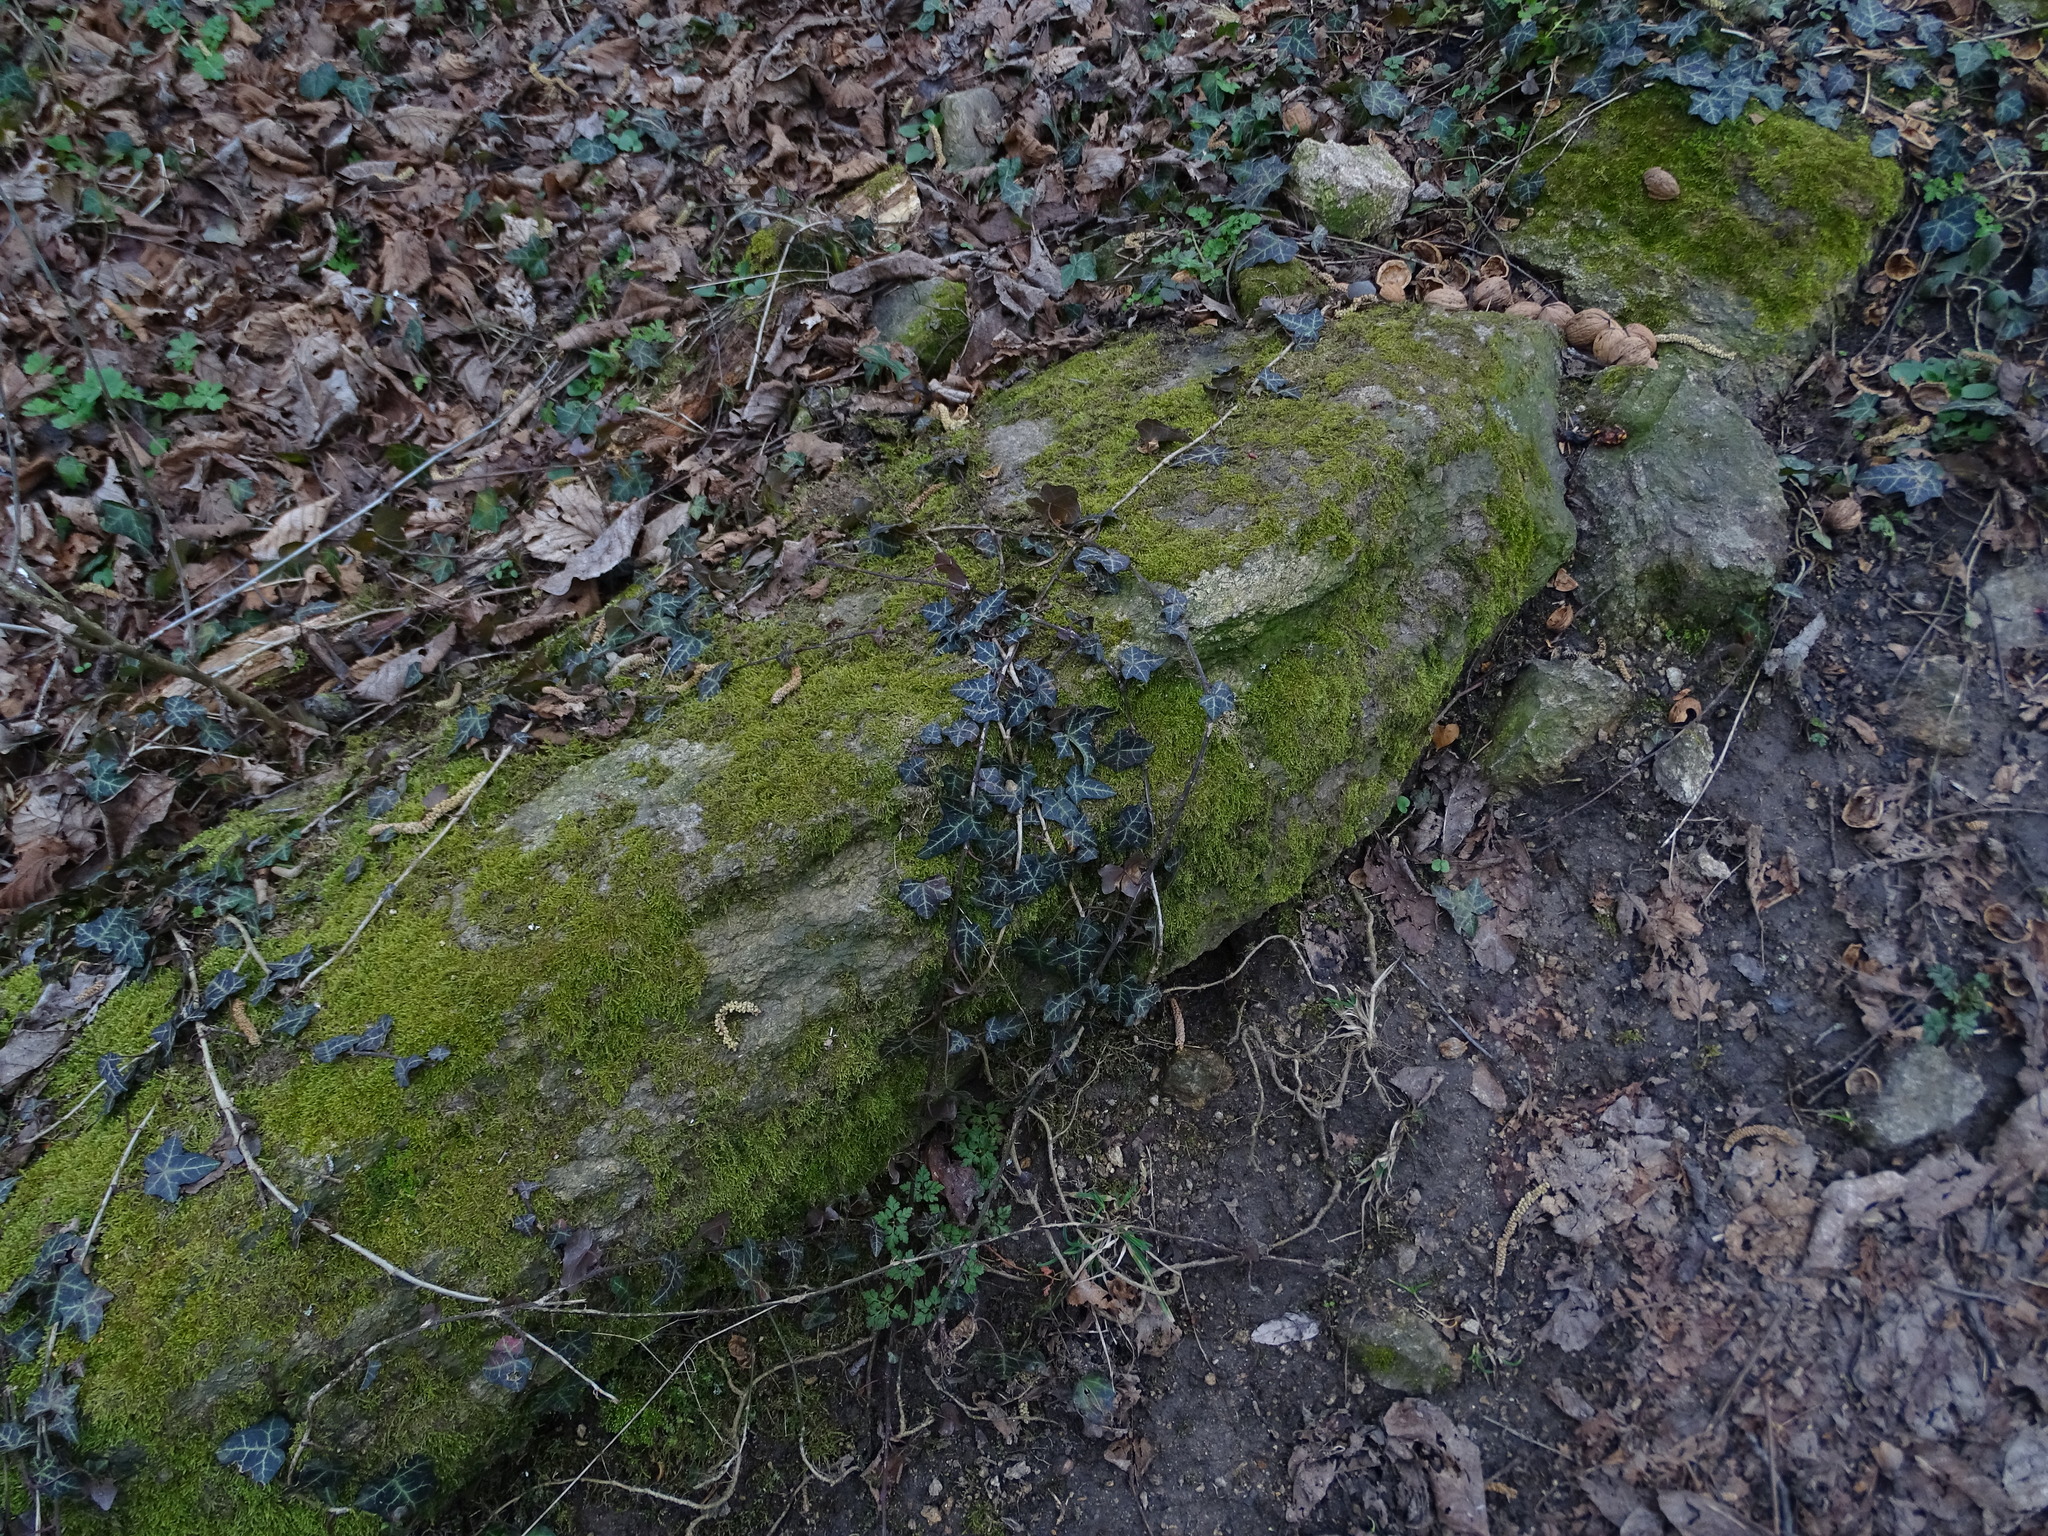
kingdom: Plantae
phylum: Tracheophyta
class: Magnoliopsida
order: Apiales
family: Araliaceae
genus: Hedera
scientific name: Hedera helix
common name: Ivy
